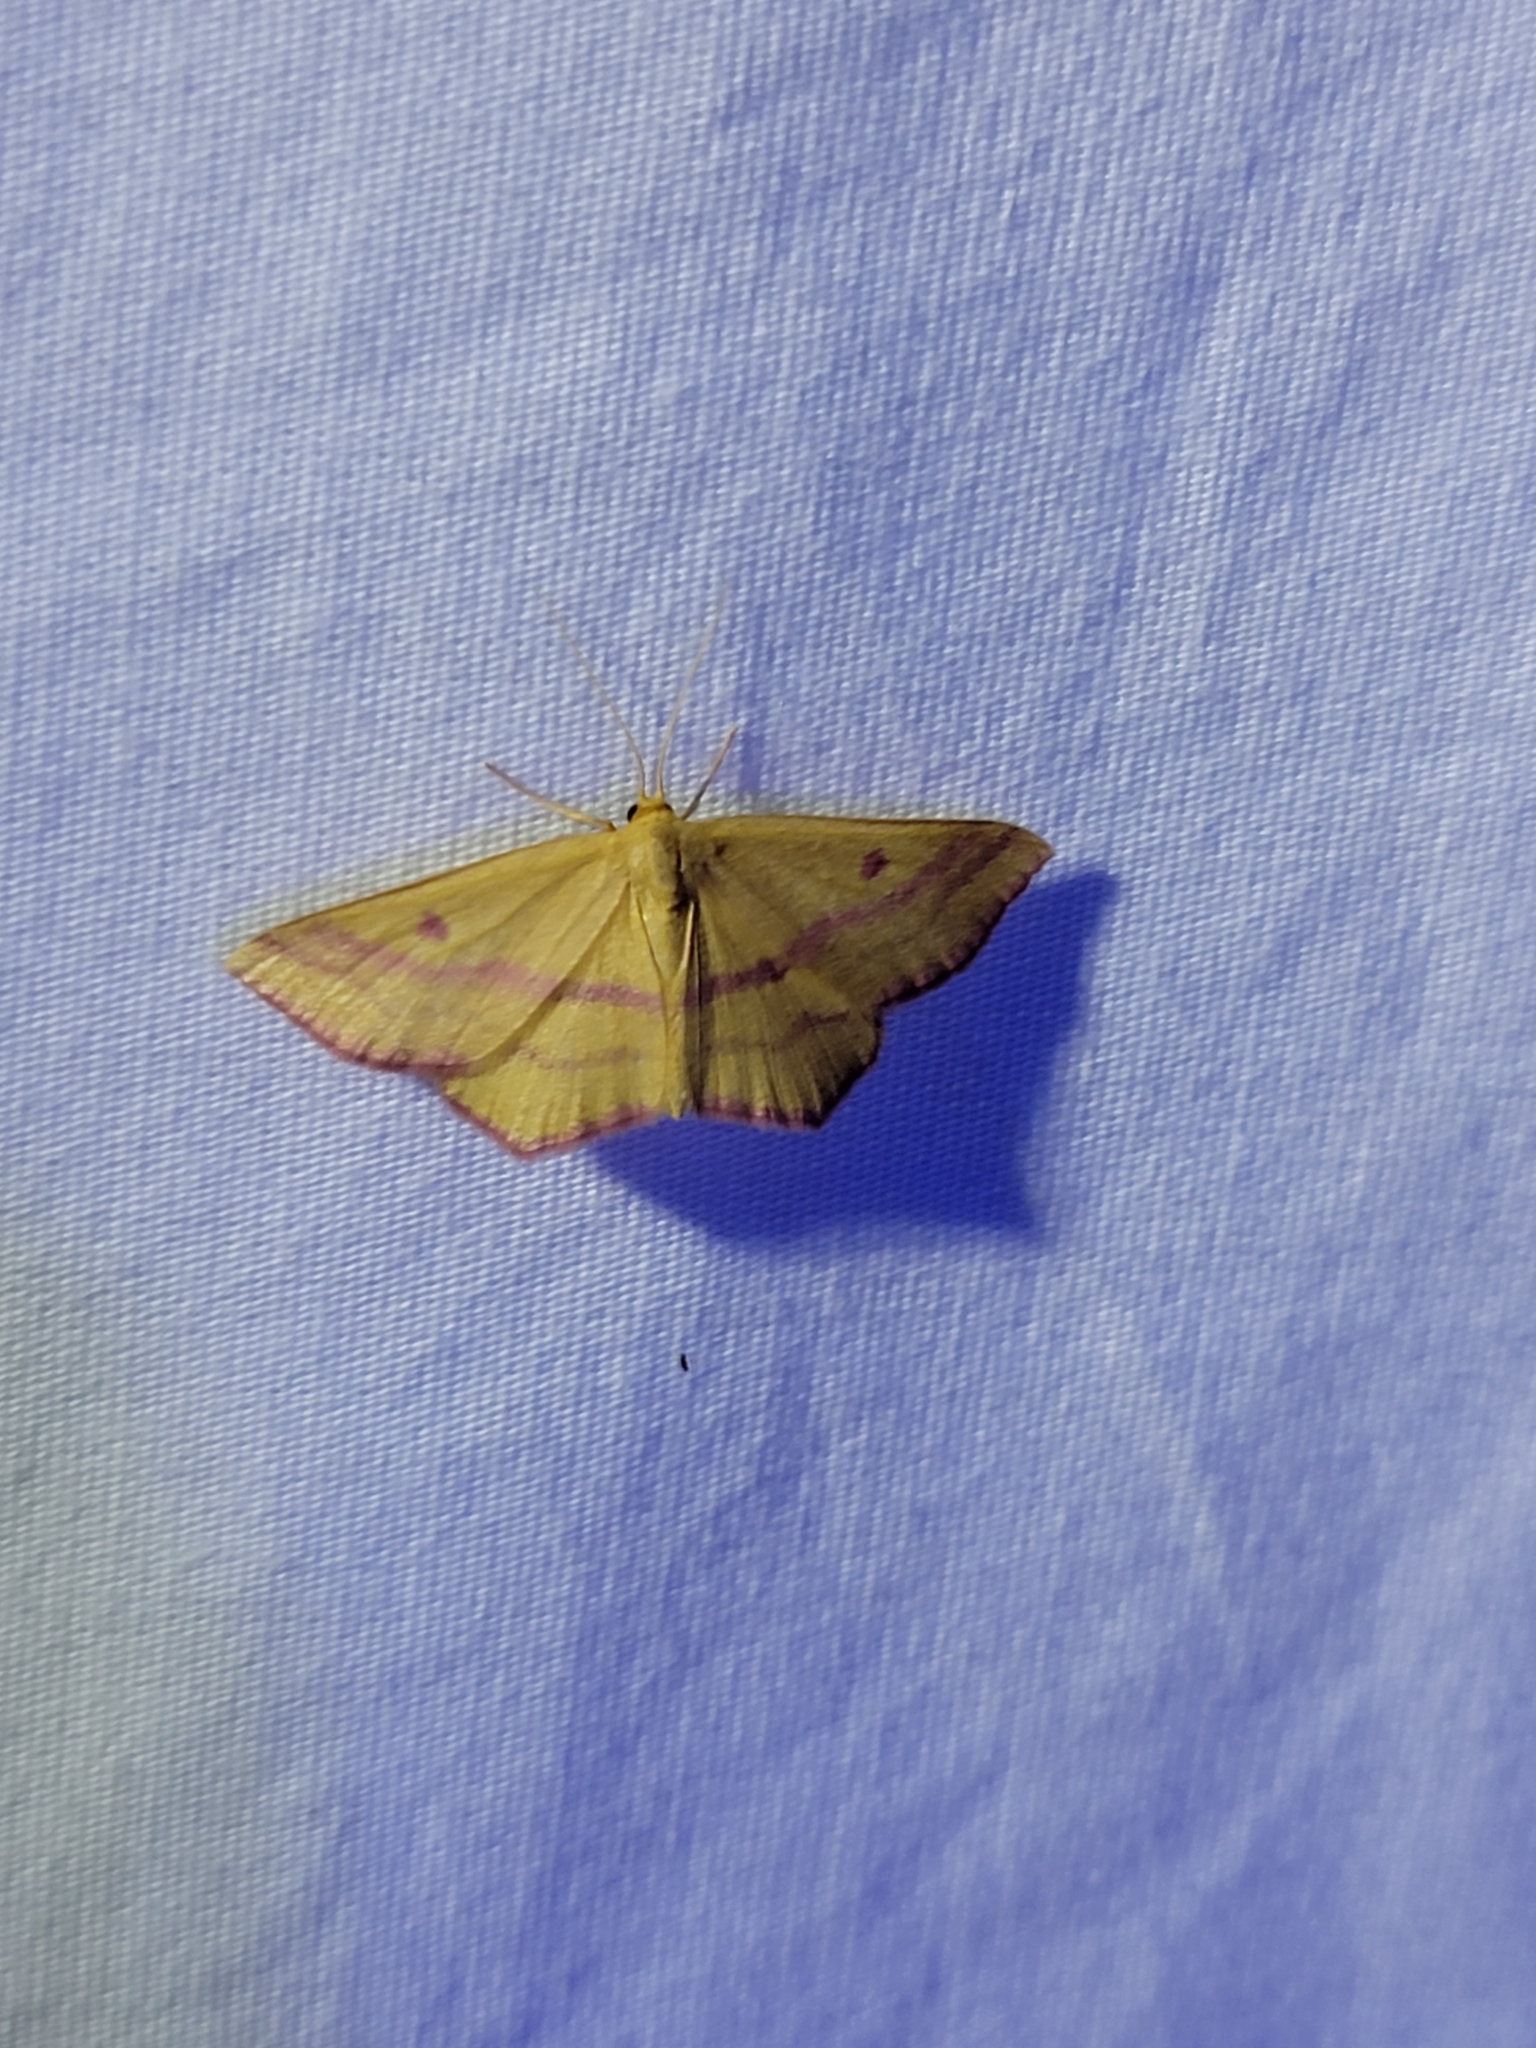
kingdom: Animalia
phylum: Arthropoda
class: Insecta
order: Lepidoptera
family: Geometridae
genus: Haematopis
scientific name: Haematopis grataria
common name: Chickweed geometer
